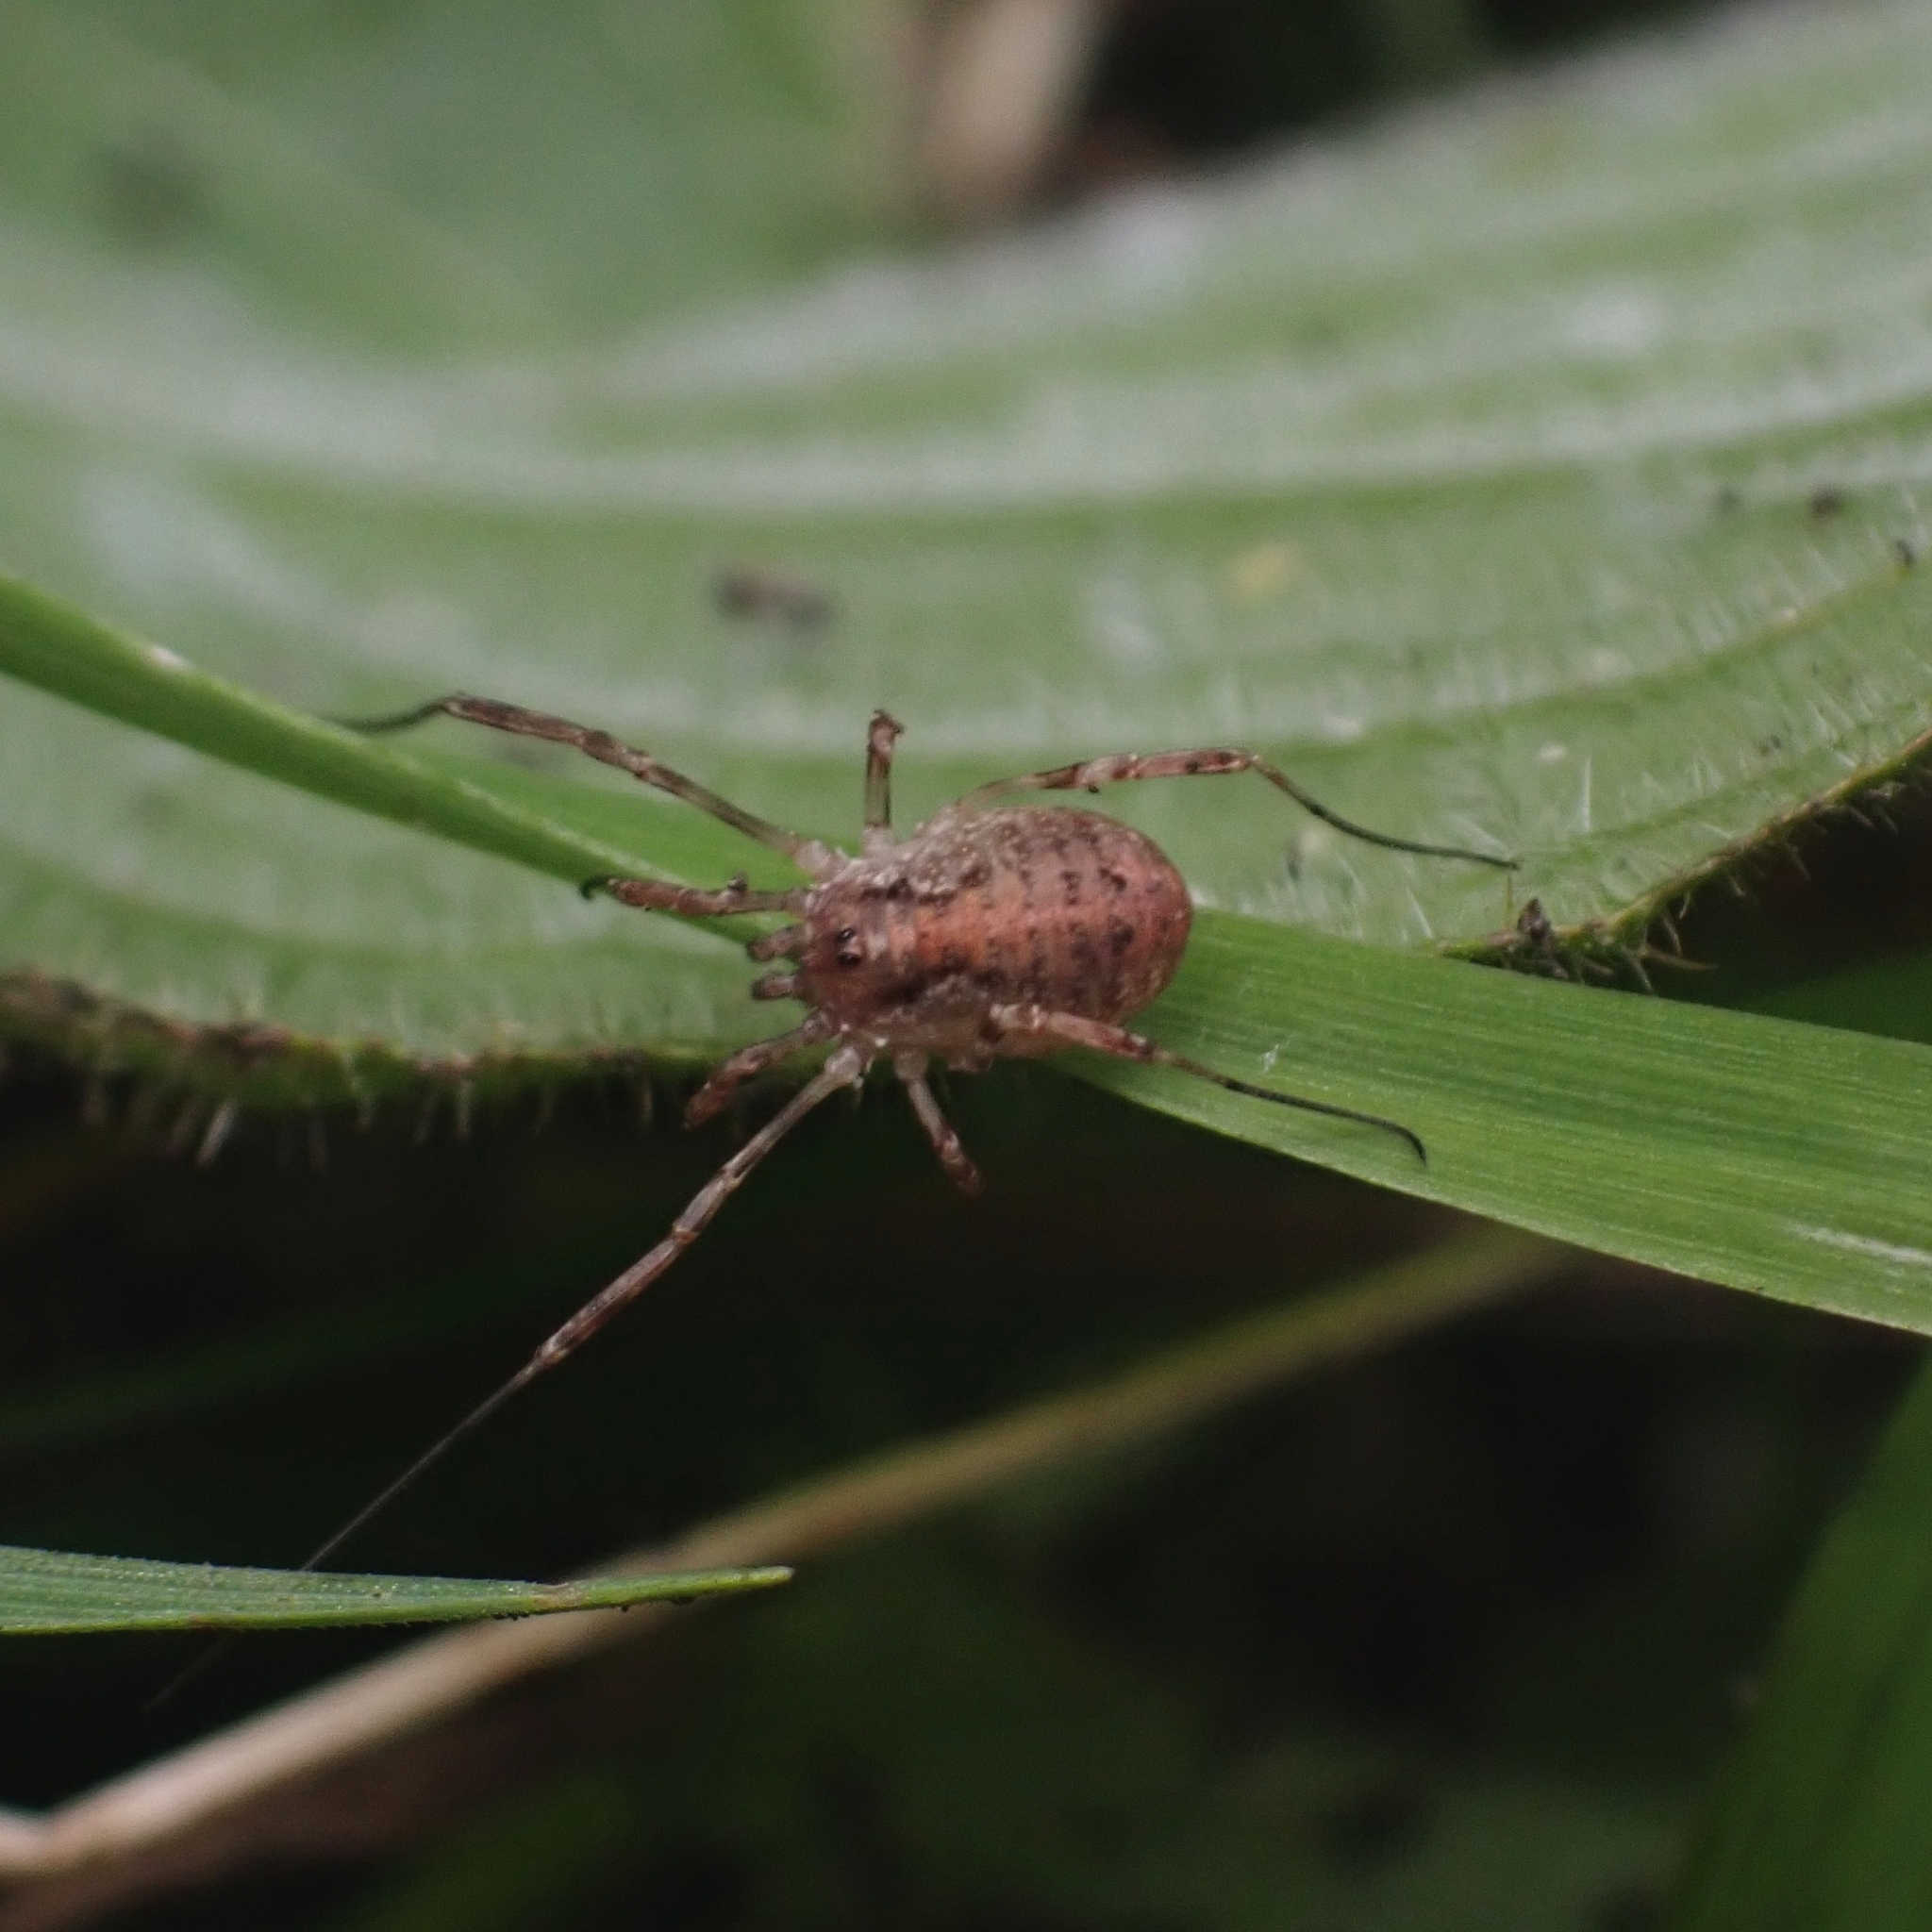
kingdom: Animalia
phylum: Arthropoda
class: Arachnida
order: Opiliones
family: Phalangiidae
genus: Paroligolophus
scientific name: Paroligolophus agrestis
